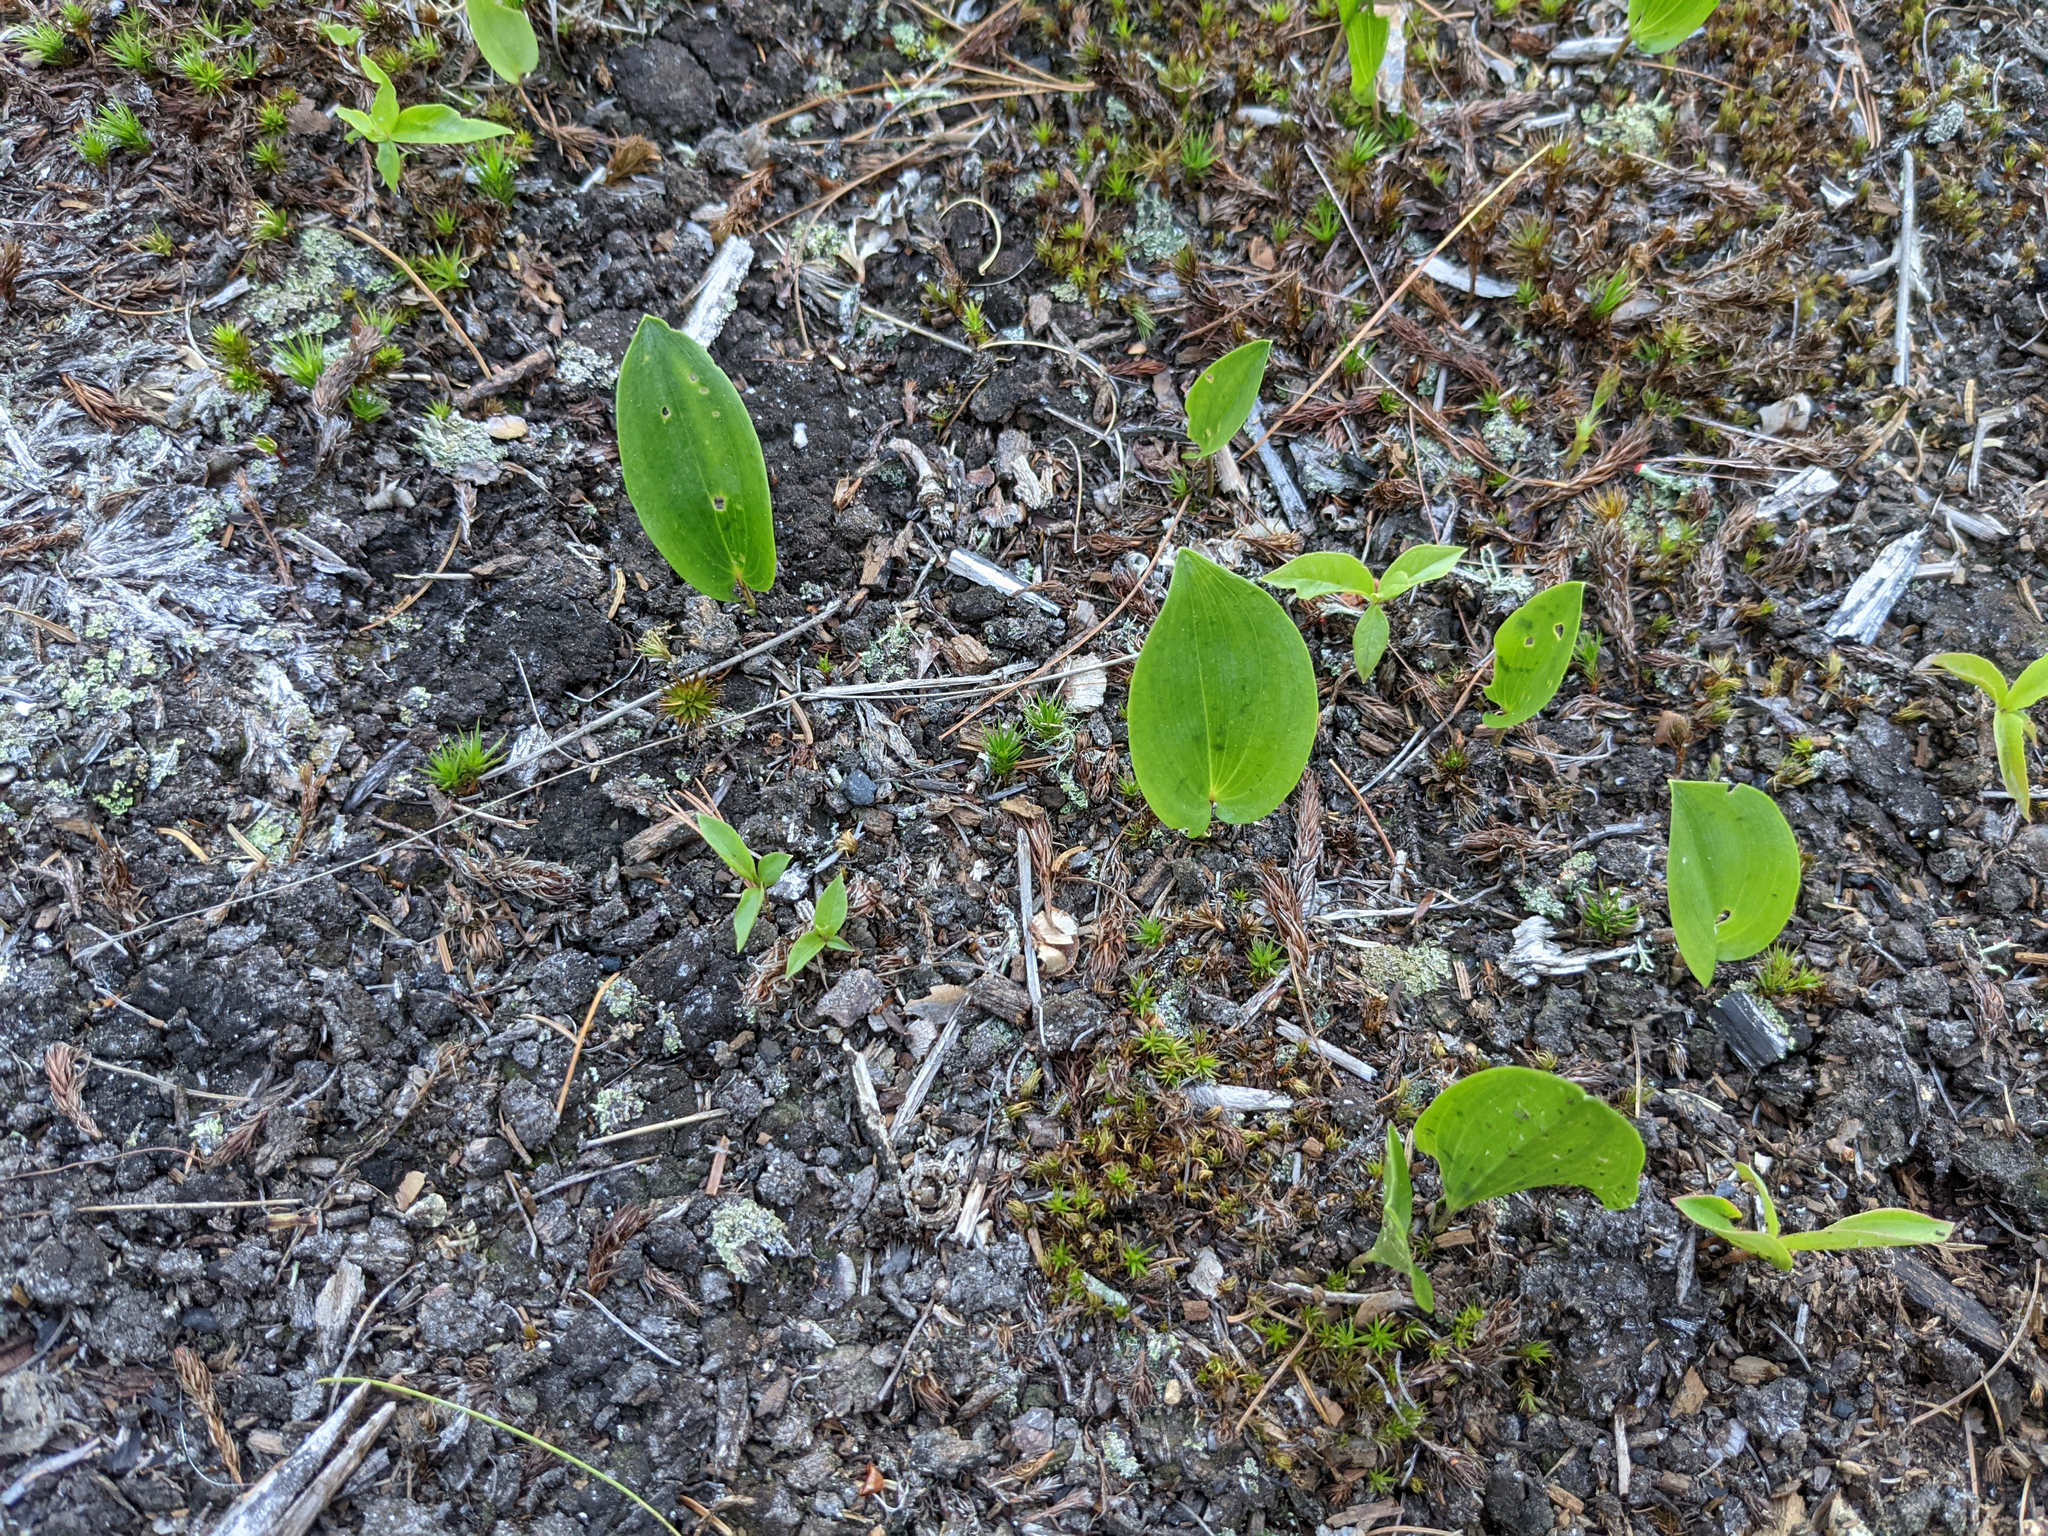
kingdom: Plantae
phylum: Tracheophyta
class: Liliopsida
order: Asparagales
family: Asparagaceae
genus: Maianthemum
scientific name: Maianthemum canadense
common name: False lily-of-the-valley
